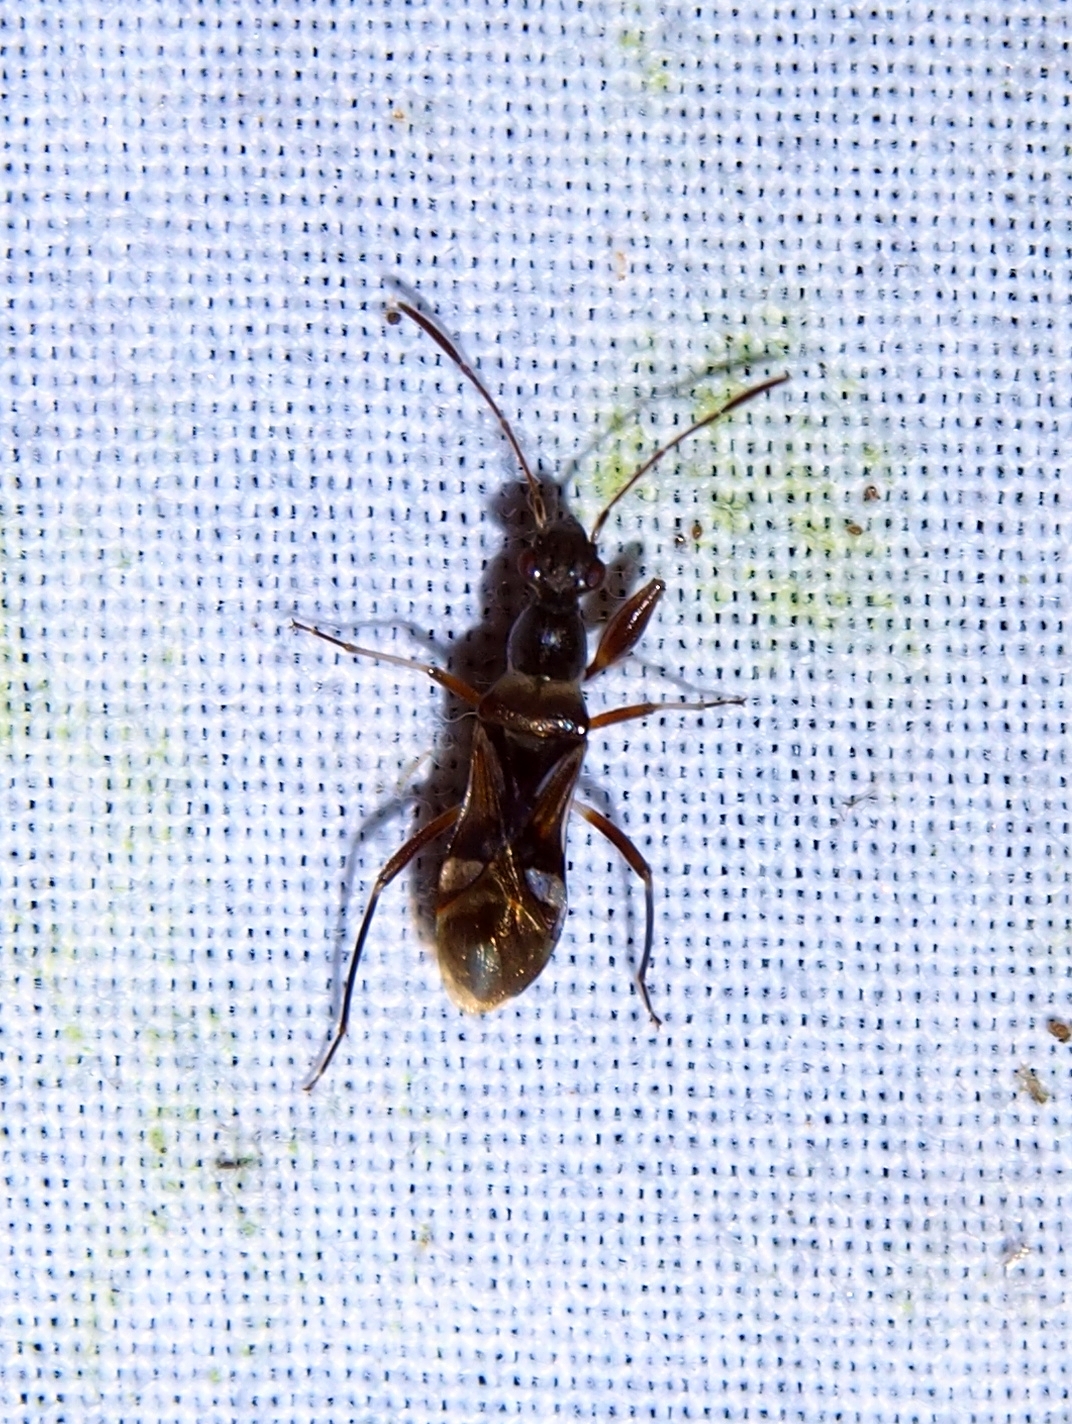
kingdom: Animalia
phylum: Arthropoda
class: Insecta
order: Hemiptera
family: Rhyparochromidae
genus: Distingphyses
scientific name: Distingphyses insignis
